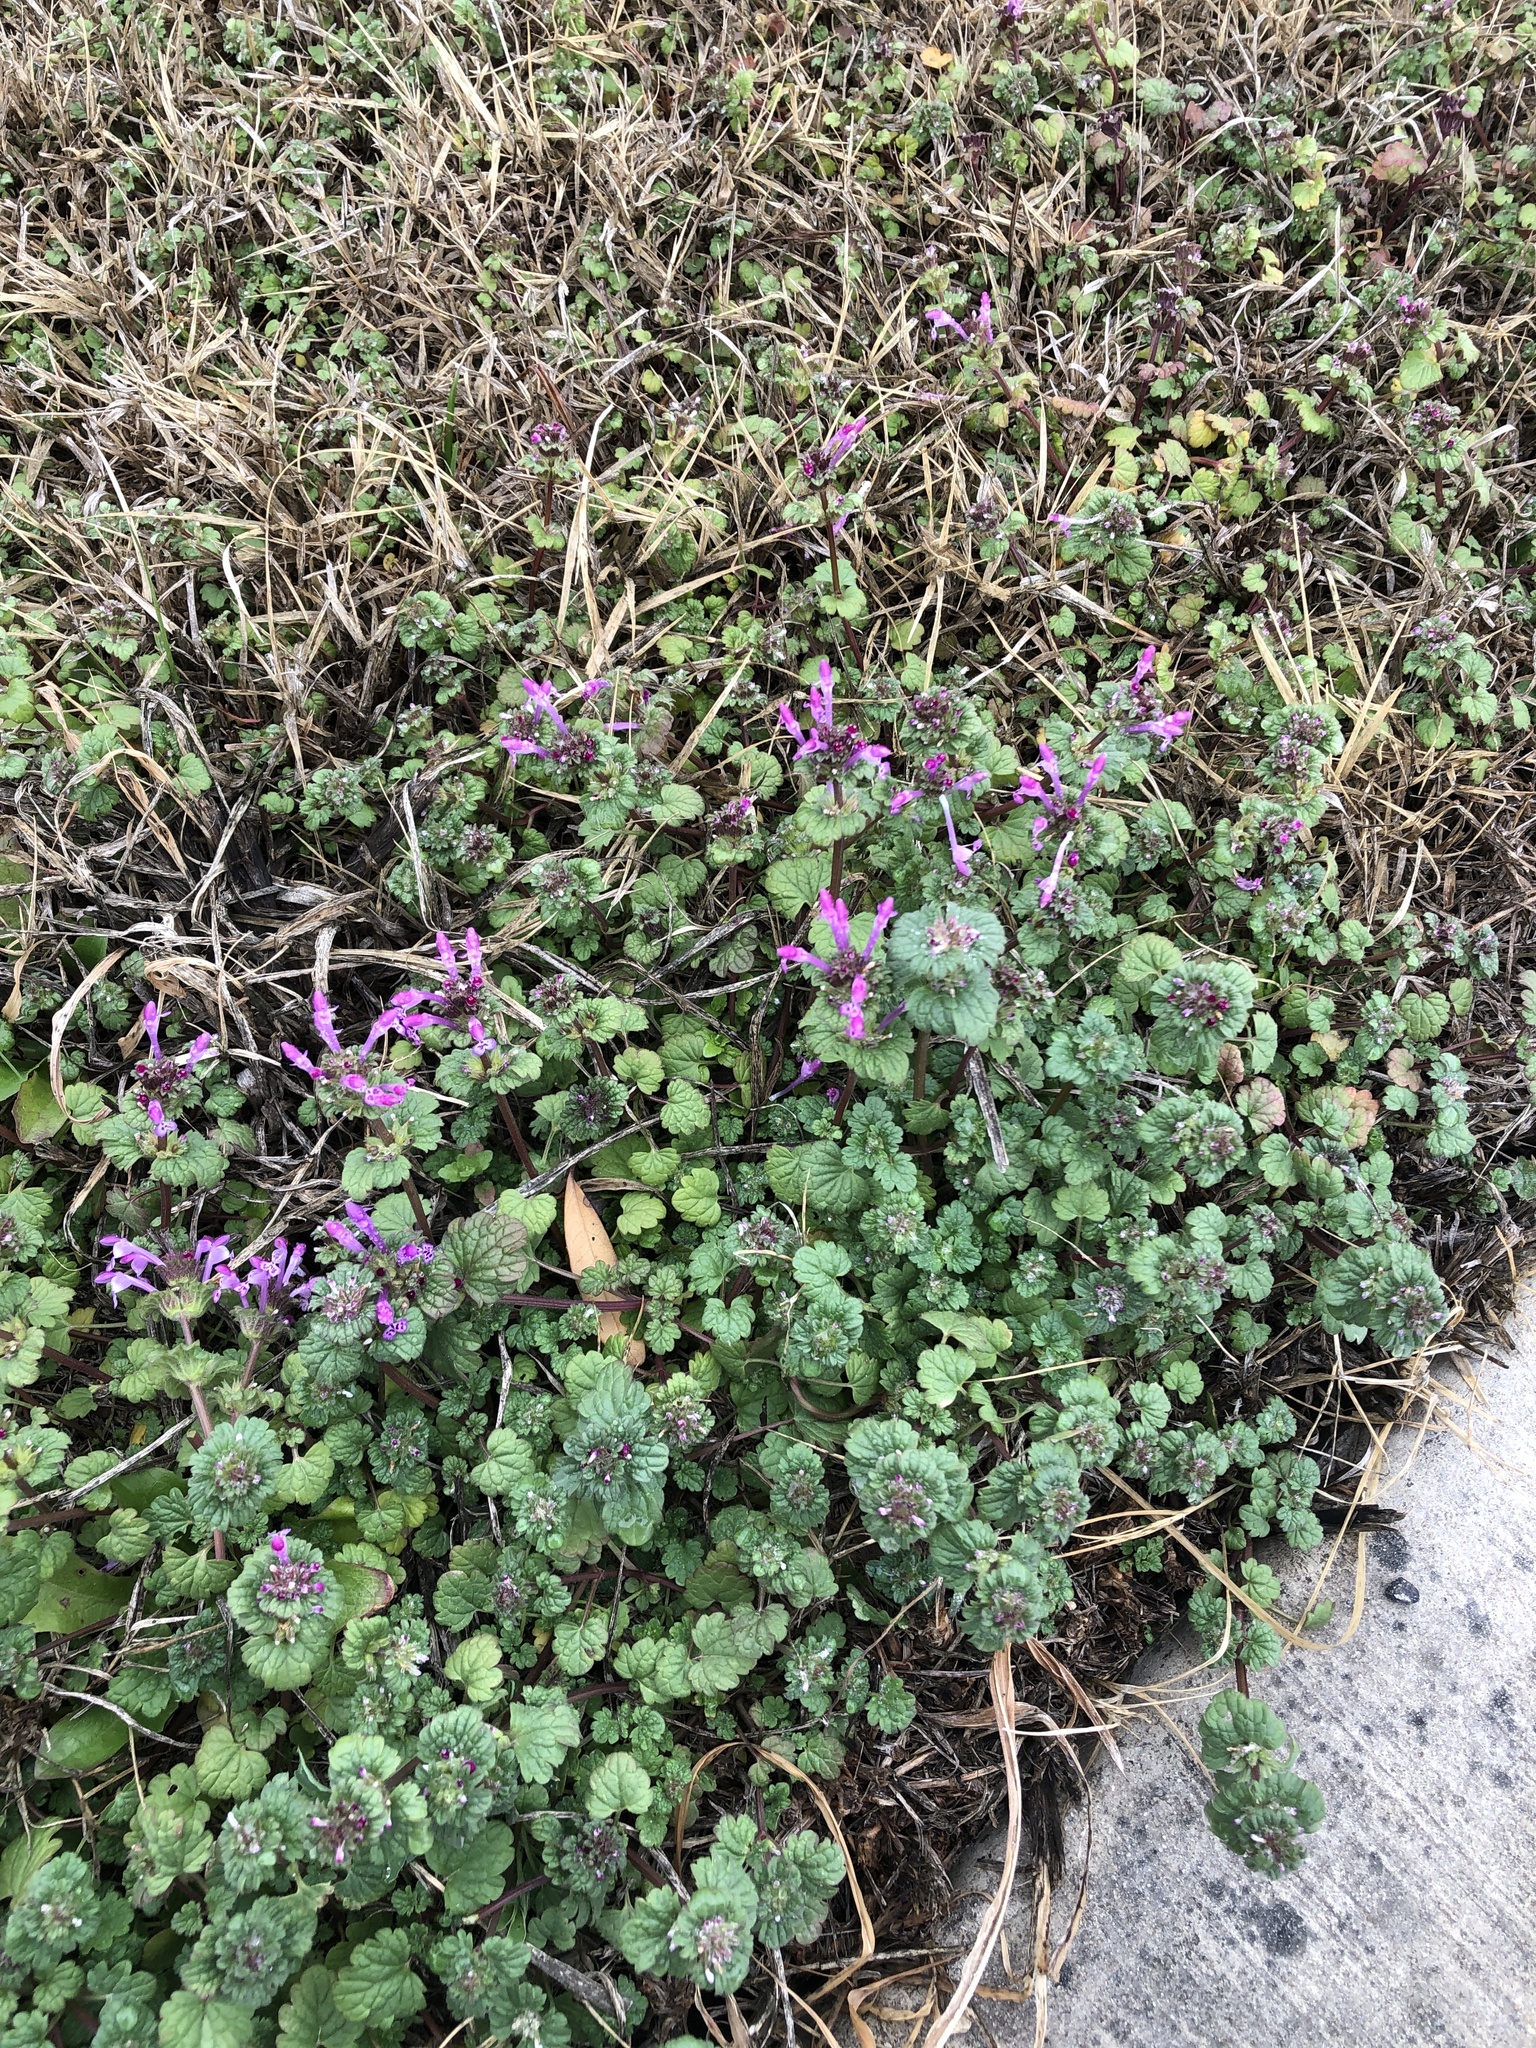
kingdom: Plantae
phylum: Tracheophyta
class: Magnoliopsida
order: Lamiales
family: Lamiaceae
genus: Lamium
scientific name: Lamium amplexicaule
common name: Henbit dead-nettle
